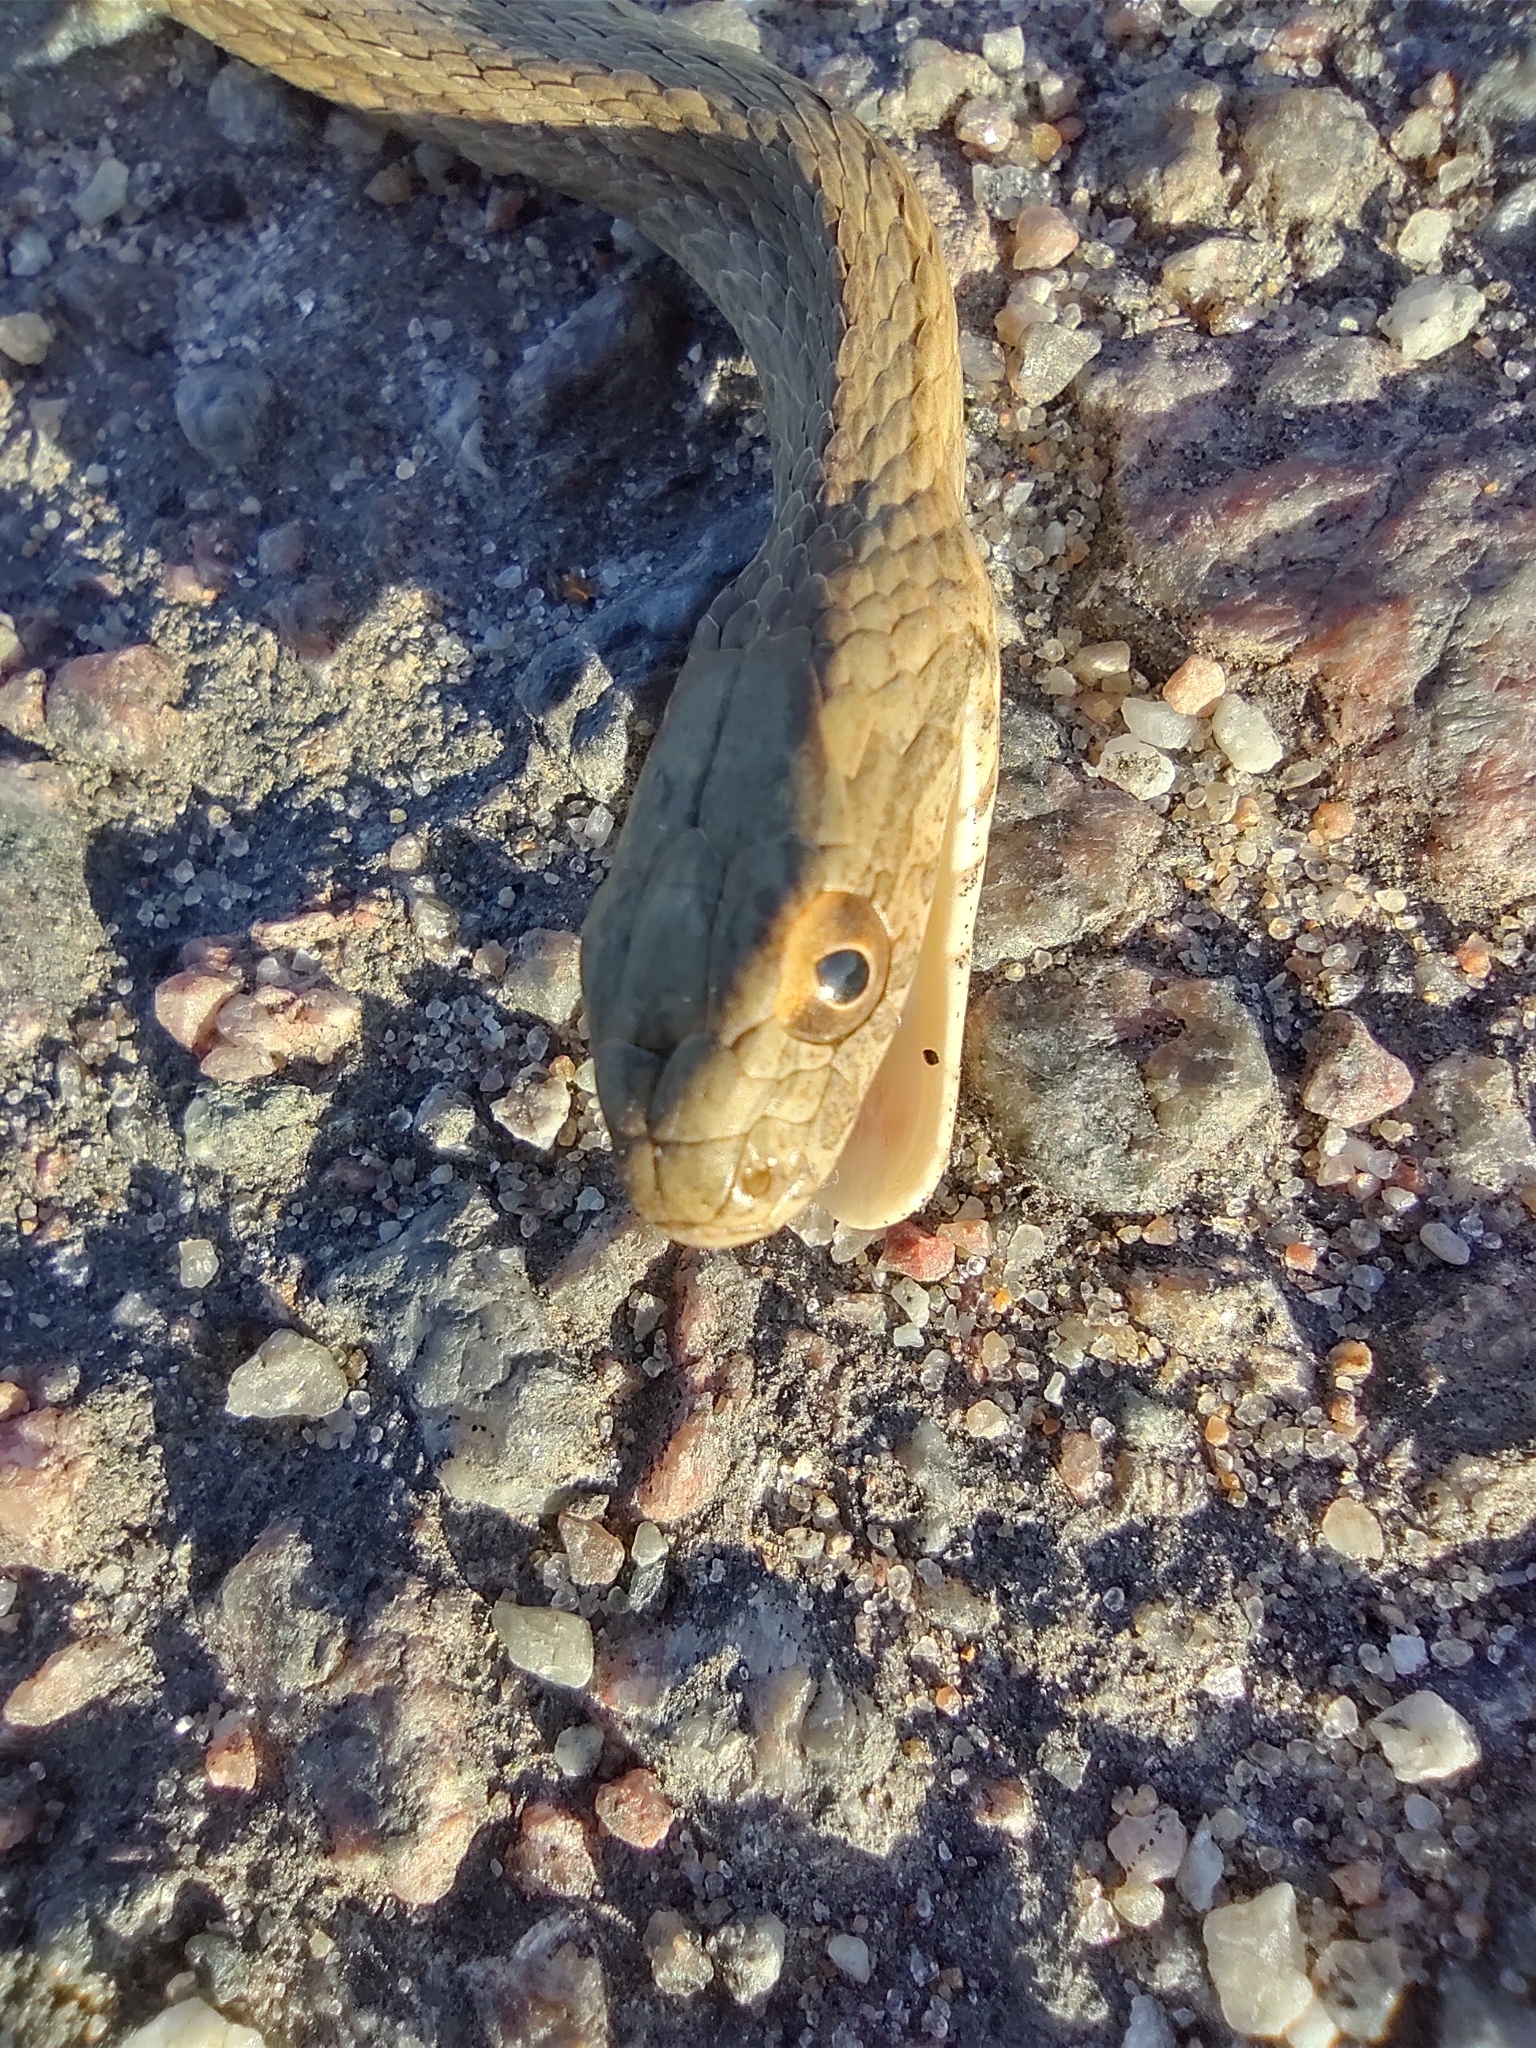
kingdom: Animalia
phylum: Chordata
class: Squamata
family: Colubridae
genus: Dryophylax
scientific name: Dryophylax
